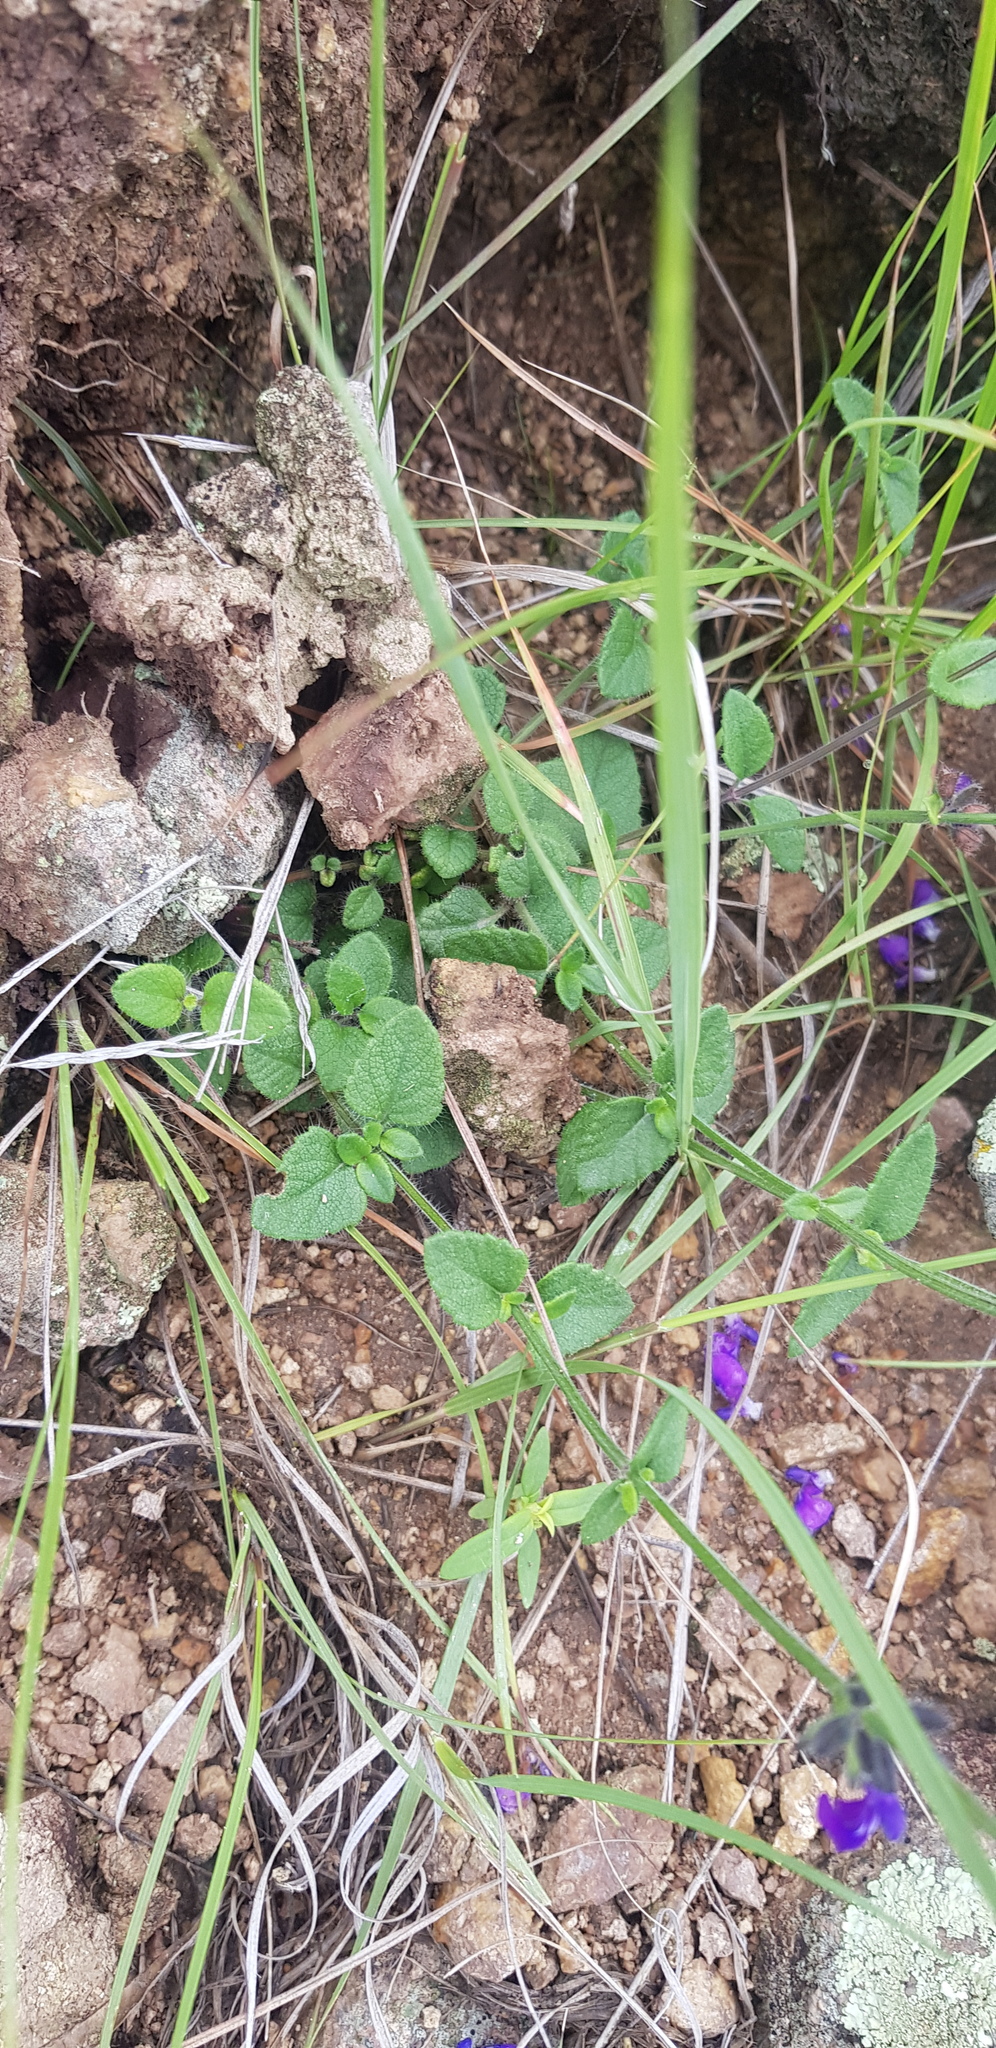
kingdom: Plantae
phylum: Tracheophyta
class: Magnoliopsida
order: Lamiales
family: Lamiaceae
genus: Salvia
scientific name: Salvia pusilla
